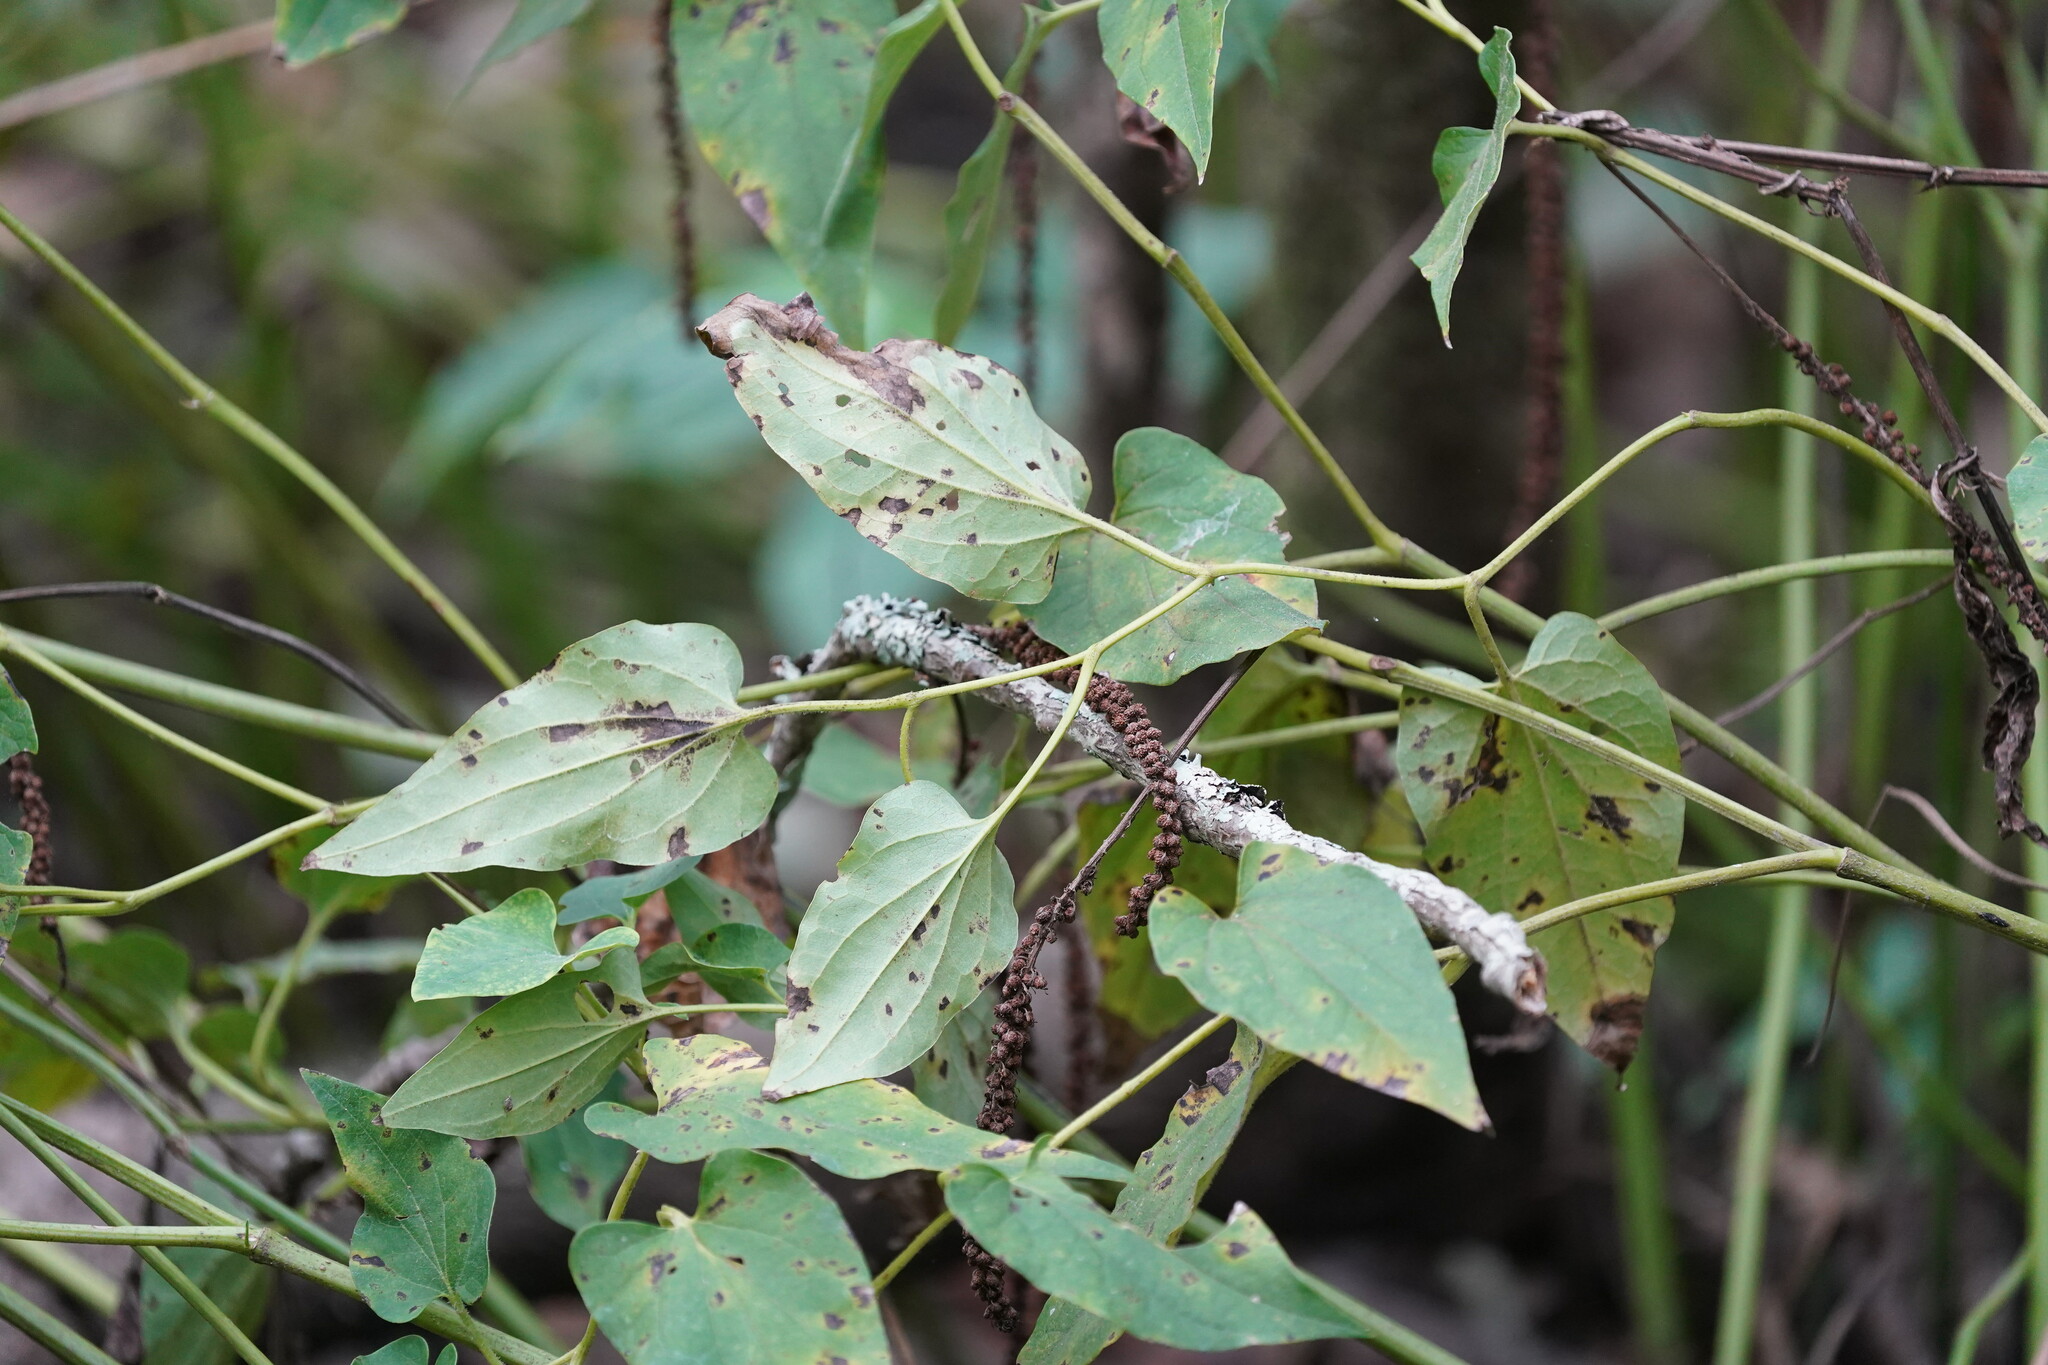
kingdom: Plantae
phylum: Tracheophyta
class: Magnoliopsida
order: Piperales
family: Saururaceae
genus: Saururus
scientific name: Saururus cernuus
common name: Lizard's-tail
